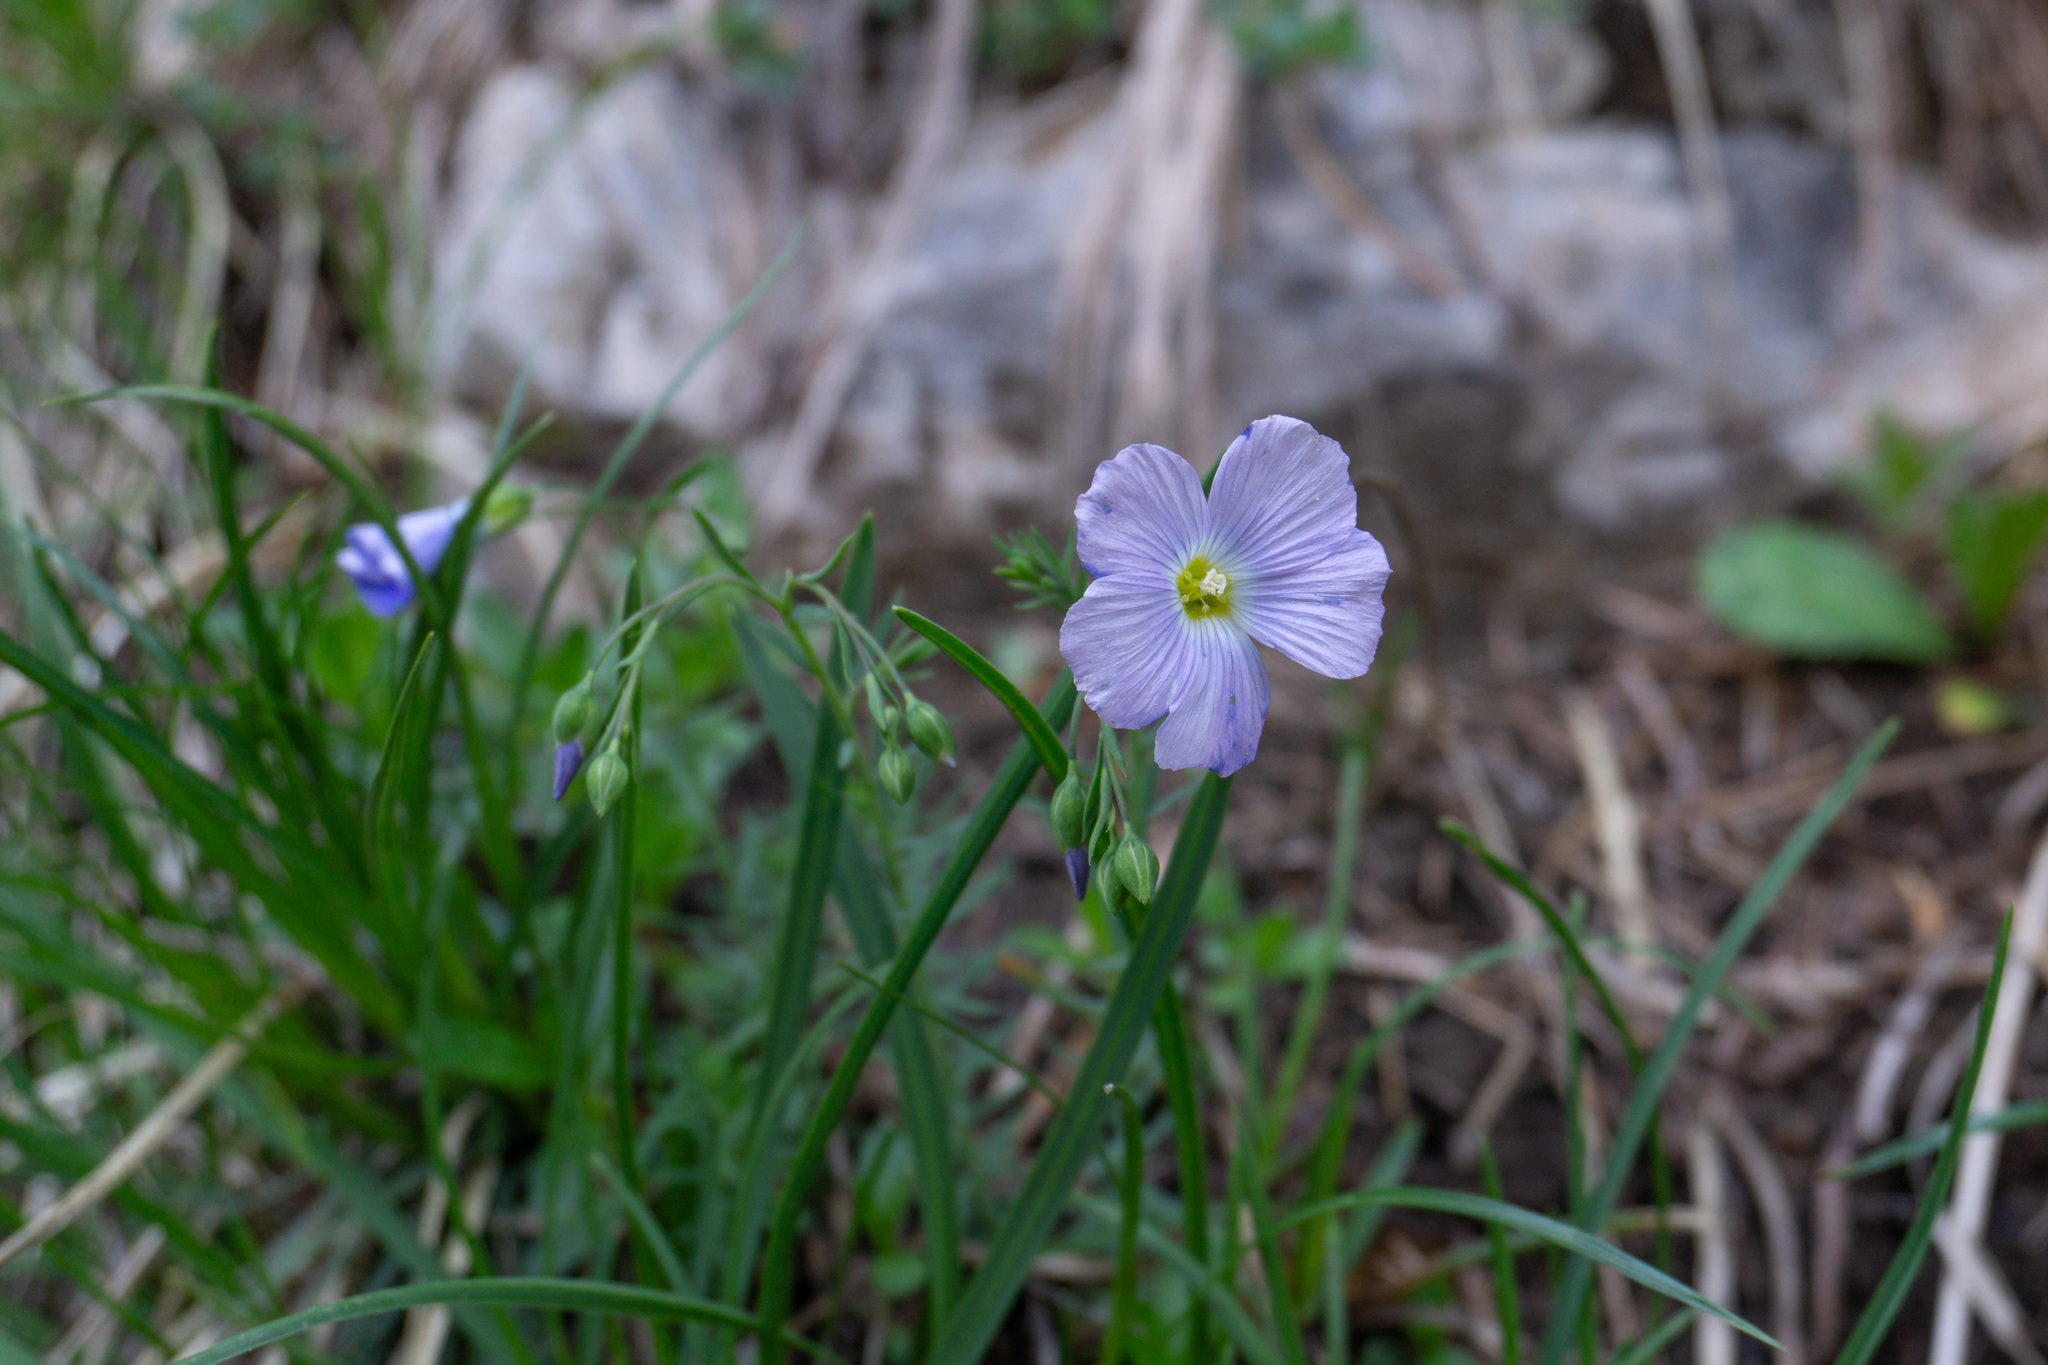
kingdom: Plantae
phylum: Tracheophyta
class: Magnoliopsida
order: Malpighiales
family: Linaceae
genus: Linum
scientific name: Linum alpinum
